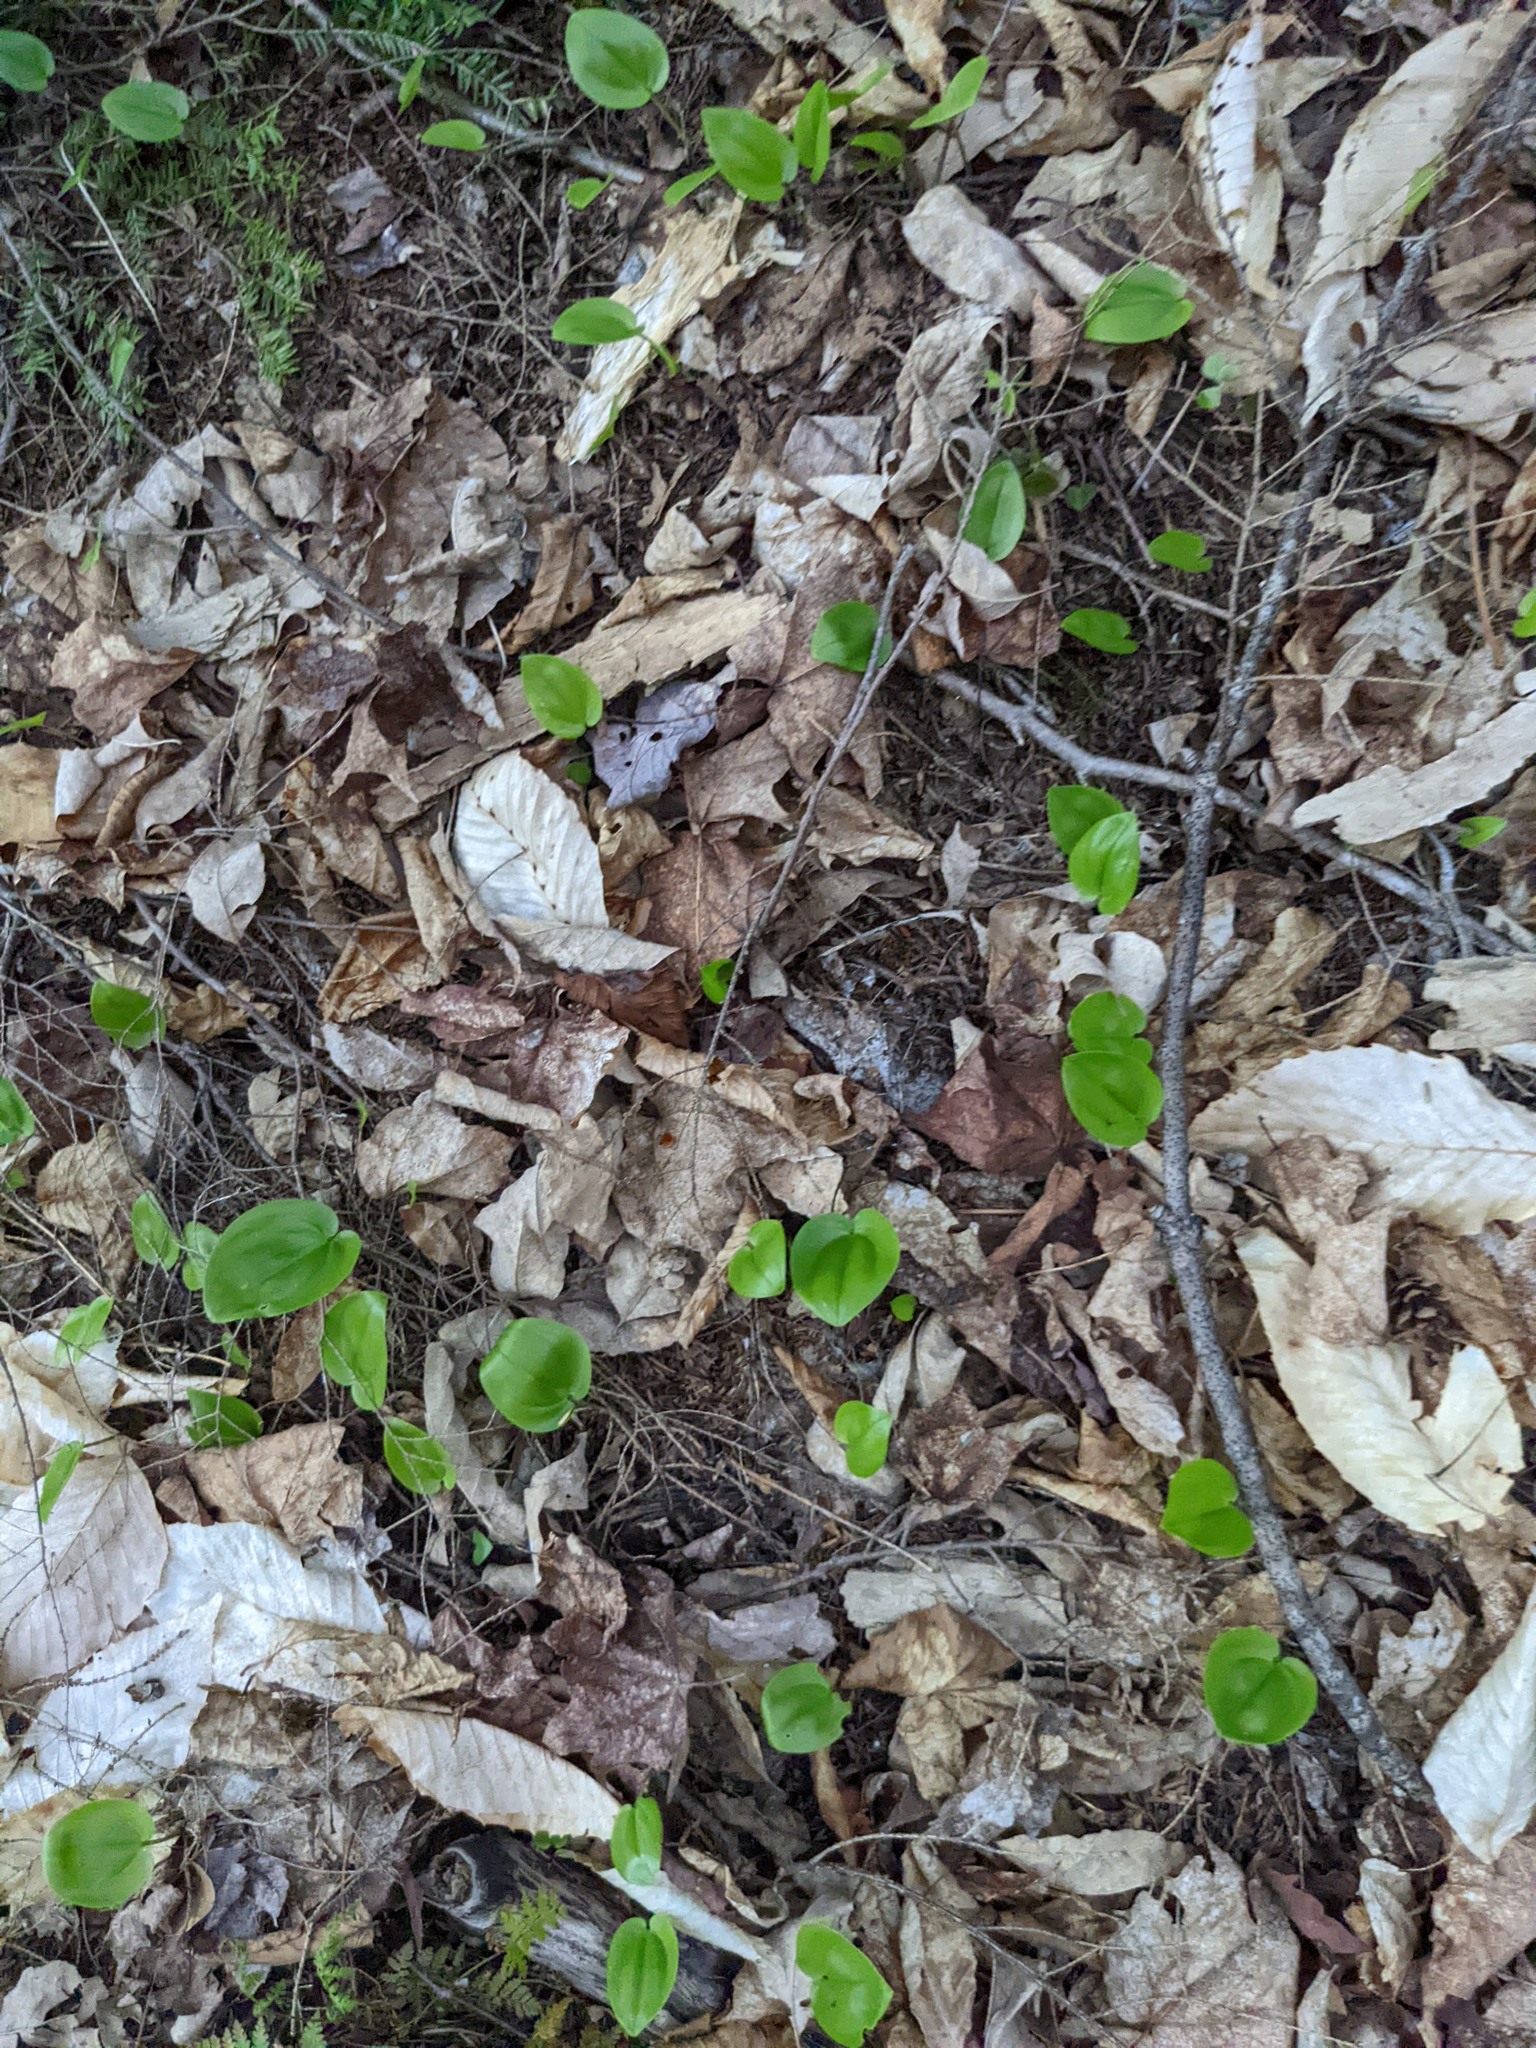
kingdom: Plantae
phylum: Tracheophyta
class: Liliopsida
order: Asparagales
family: Asparagaceae
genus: Maianthemum
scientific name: Maianthemum canadense
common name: False lily-of-the-valley
